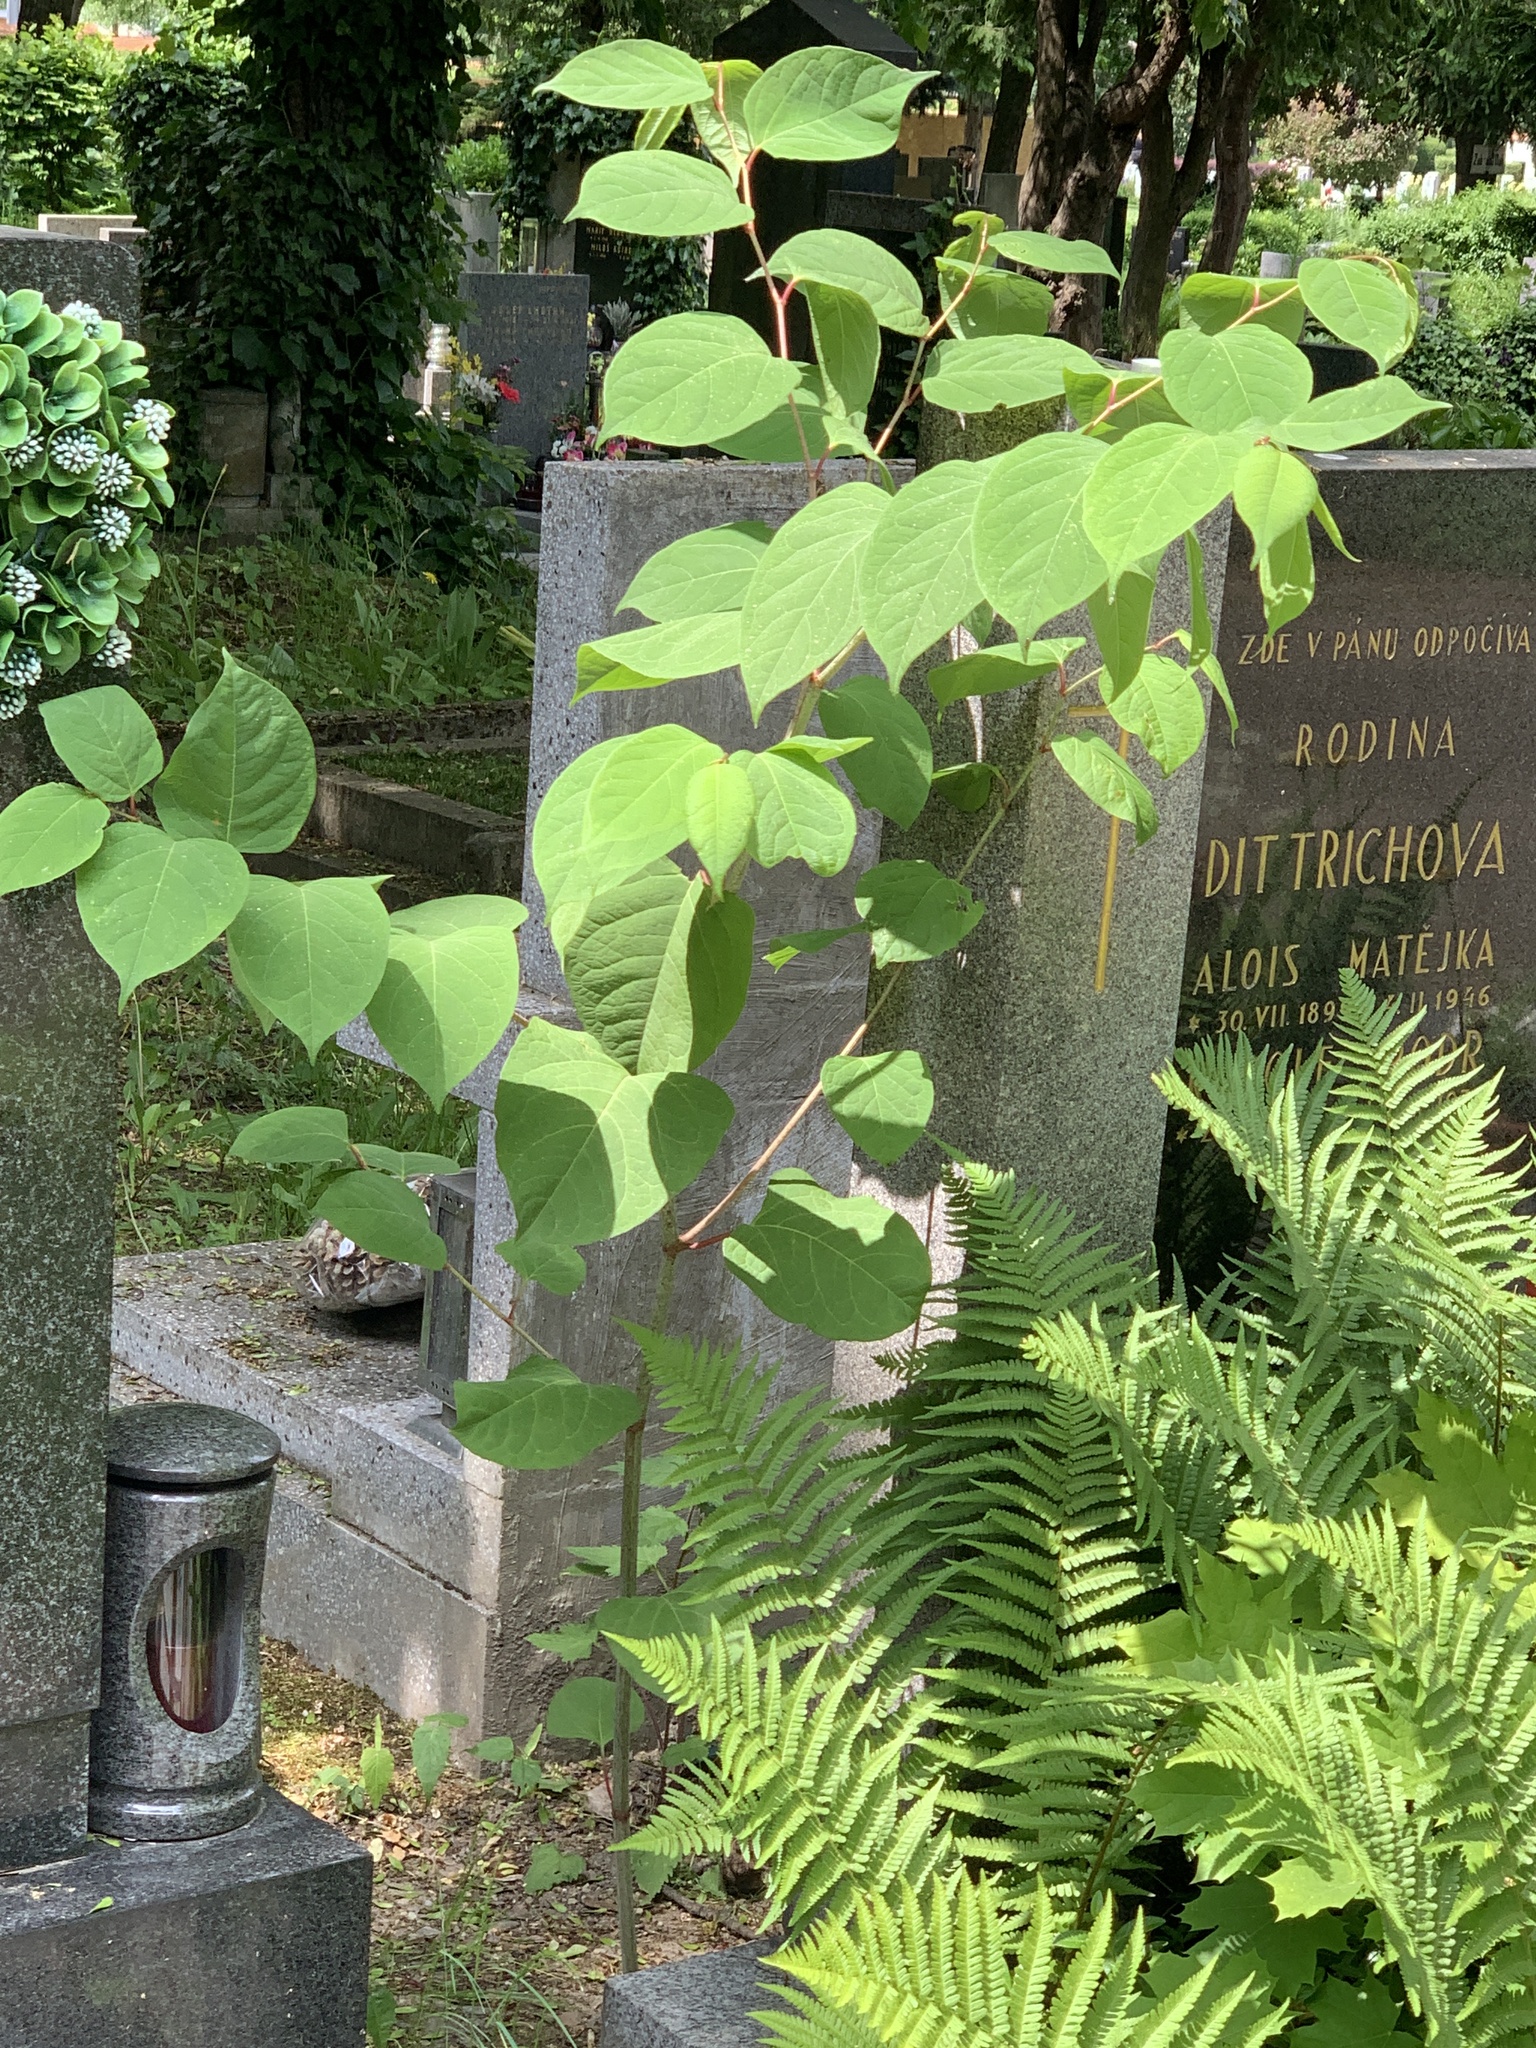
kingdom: Plantae
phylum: Tracheophyta
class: Magnoliopsida
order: Caryophyllales
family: Polygonaceae
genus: Reynoutria
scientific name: Reynoutria japonica
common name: Japanese knotweed
